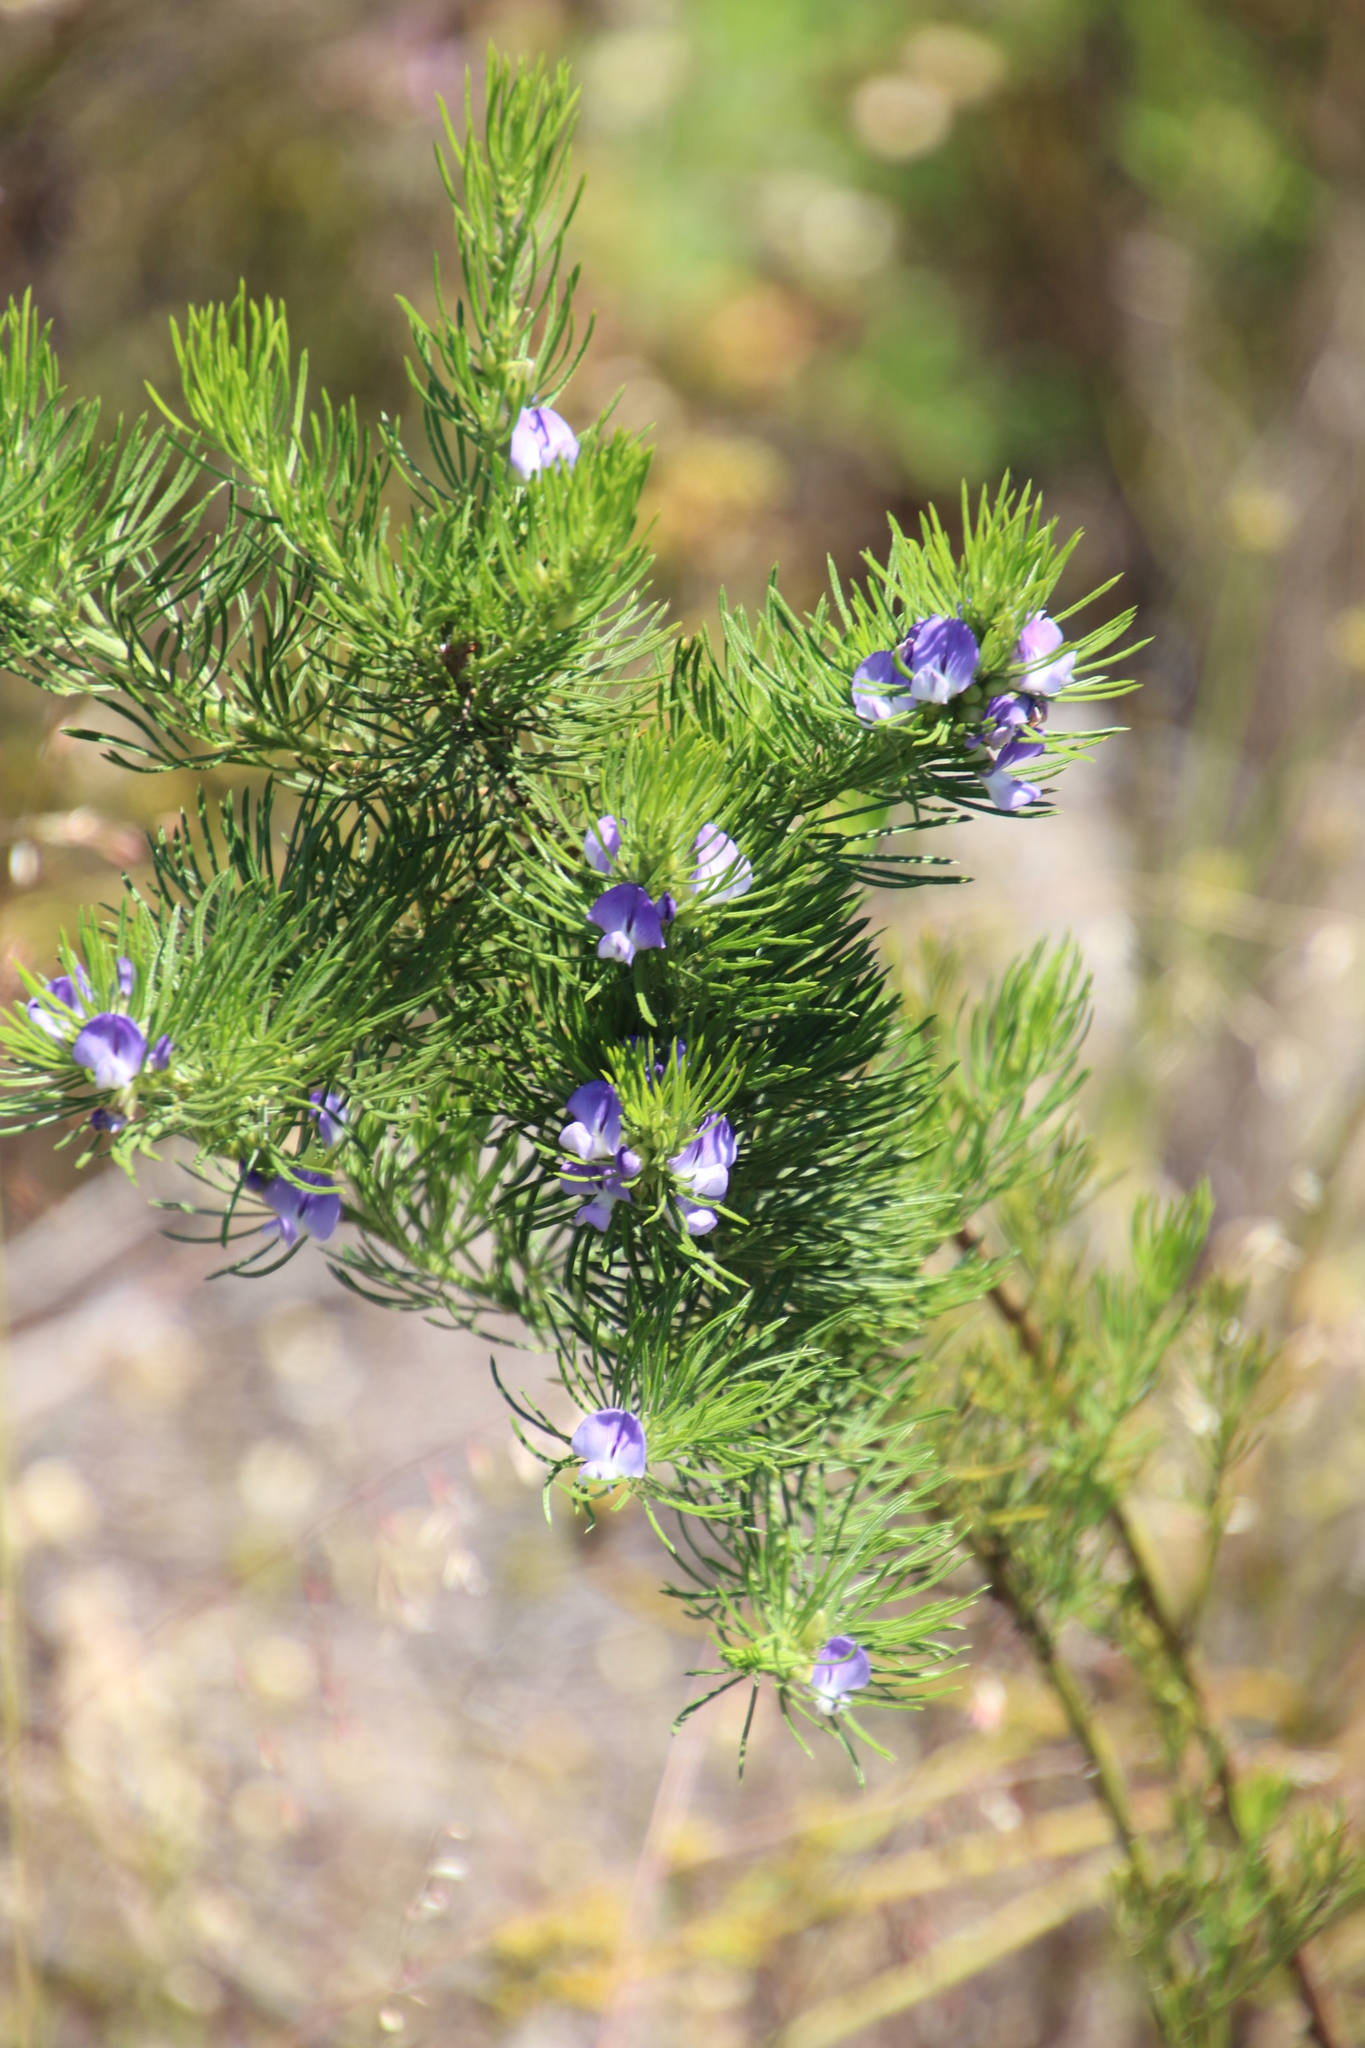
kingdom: Plantae
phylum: Tracheophyta
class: Magnoliopsida
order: Fabales
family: Fabaceae
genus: Psoralea
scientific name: Psoralea pinnata
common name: African scurfpea
